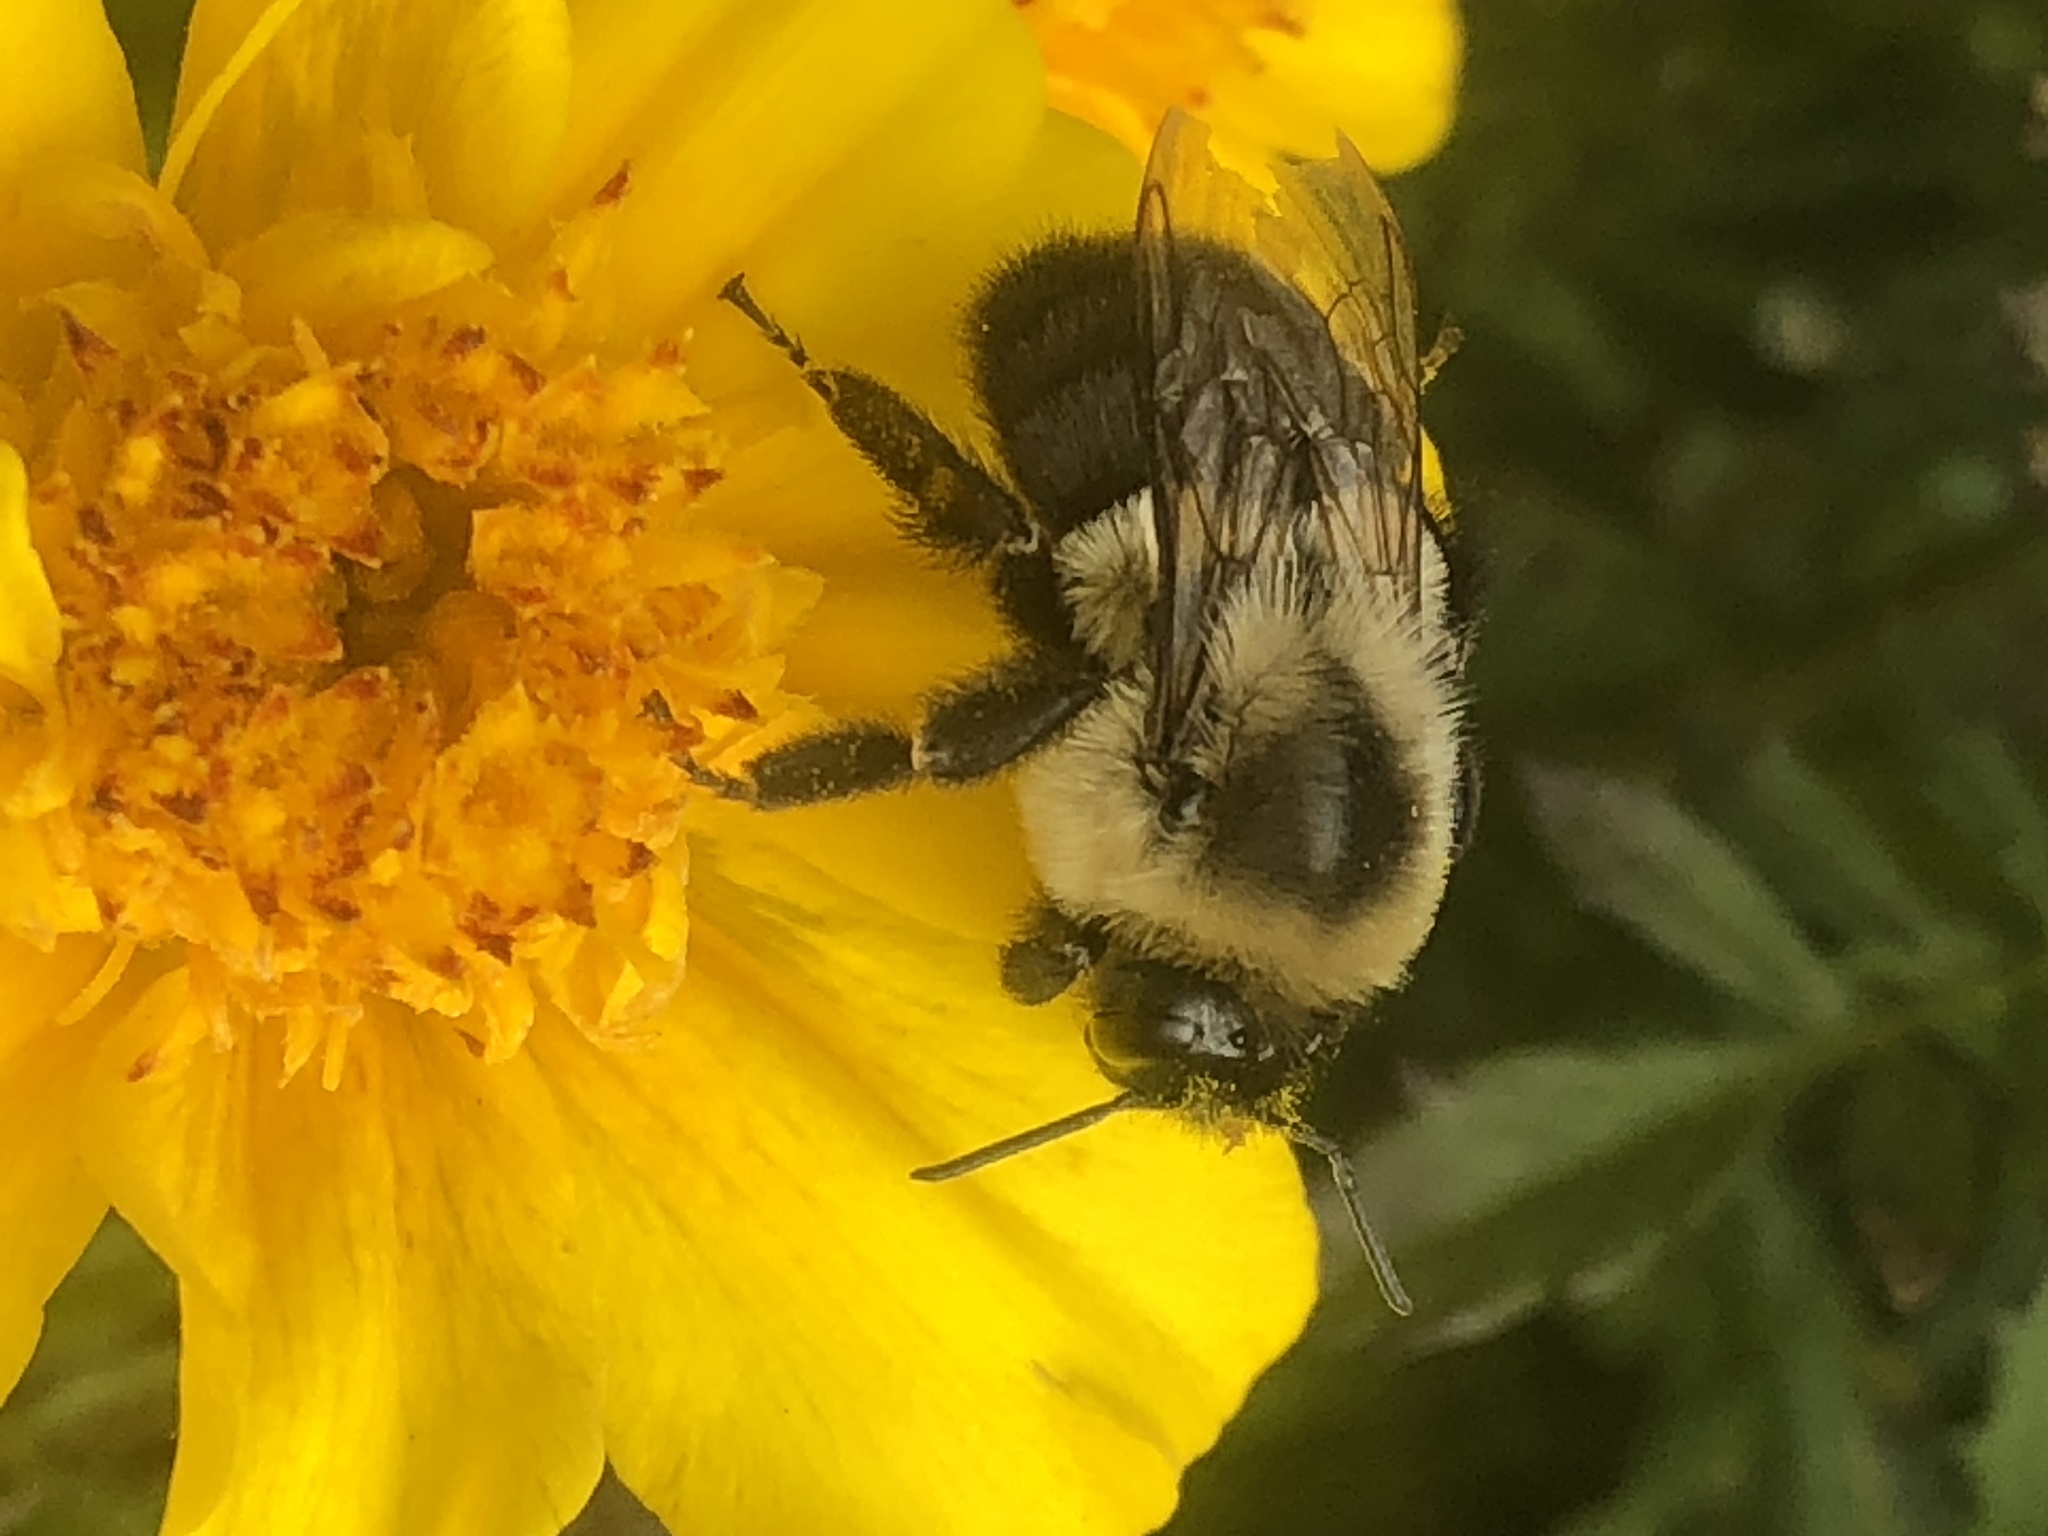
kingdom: Animalia
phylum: Arthropoda
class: Insecta
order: Hymenoptera
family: Apidae
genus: Bombus
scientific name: Bombus impatiens
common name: Common eastern bumble bee
